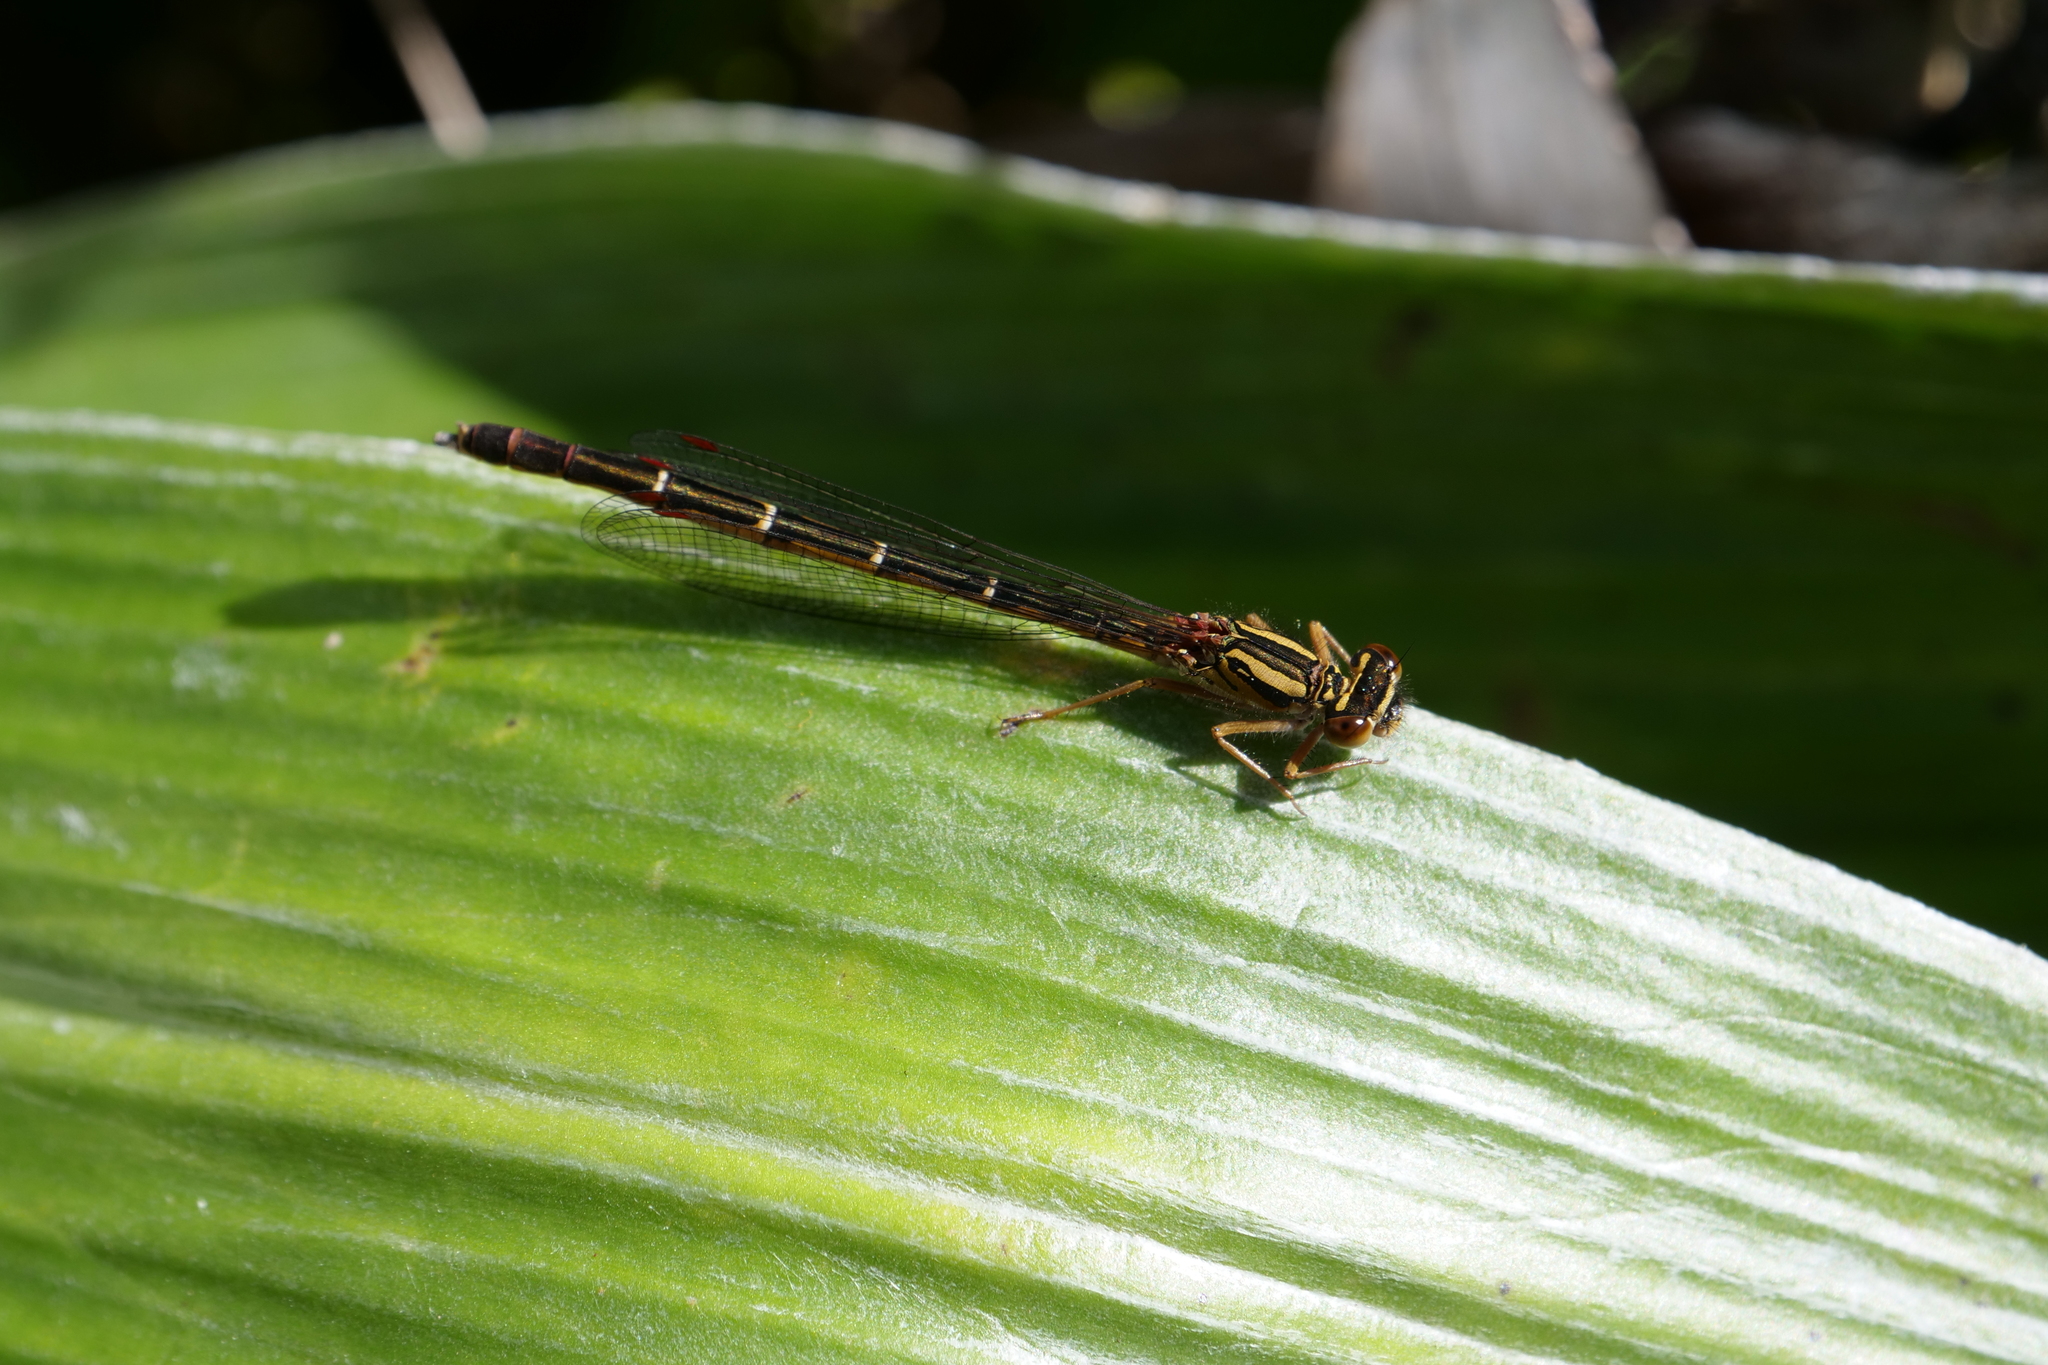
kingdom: Animalia
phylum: Arthropoda
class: Insecta
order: Odonata
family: Coenagrionidae
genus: Xanthocnemis
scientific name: Xanthocnemis zealandica
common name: Common redcoat damselfly
